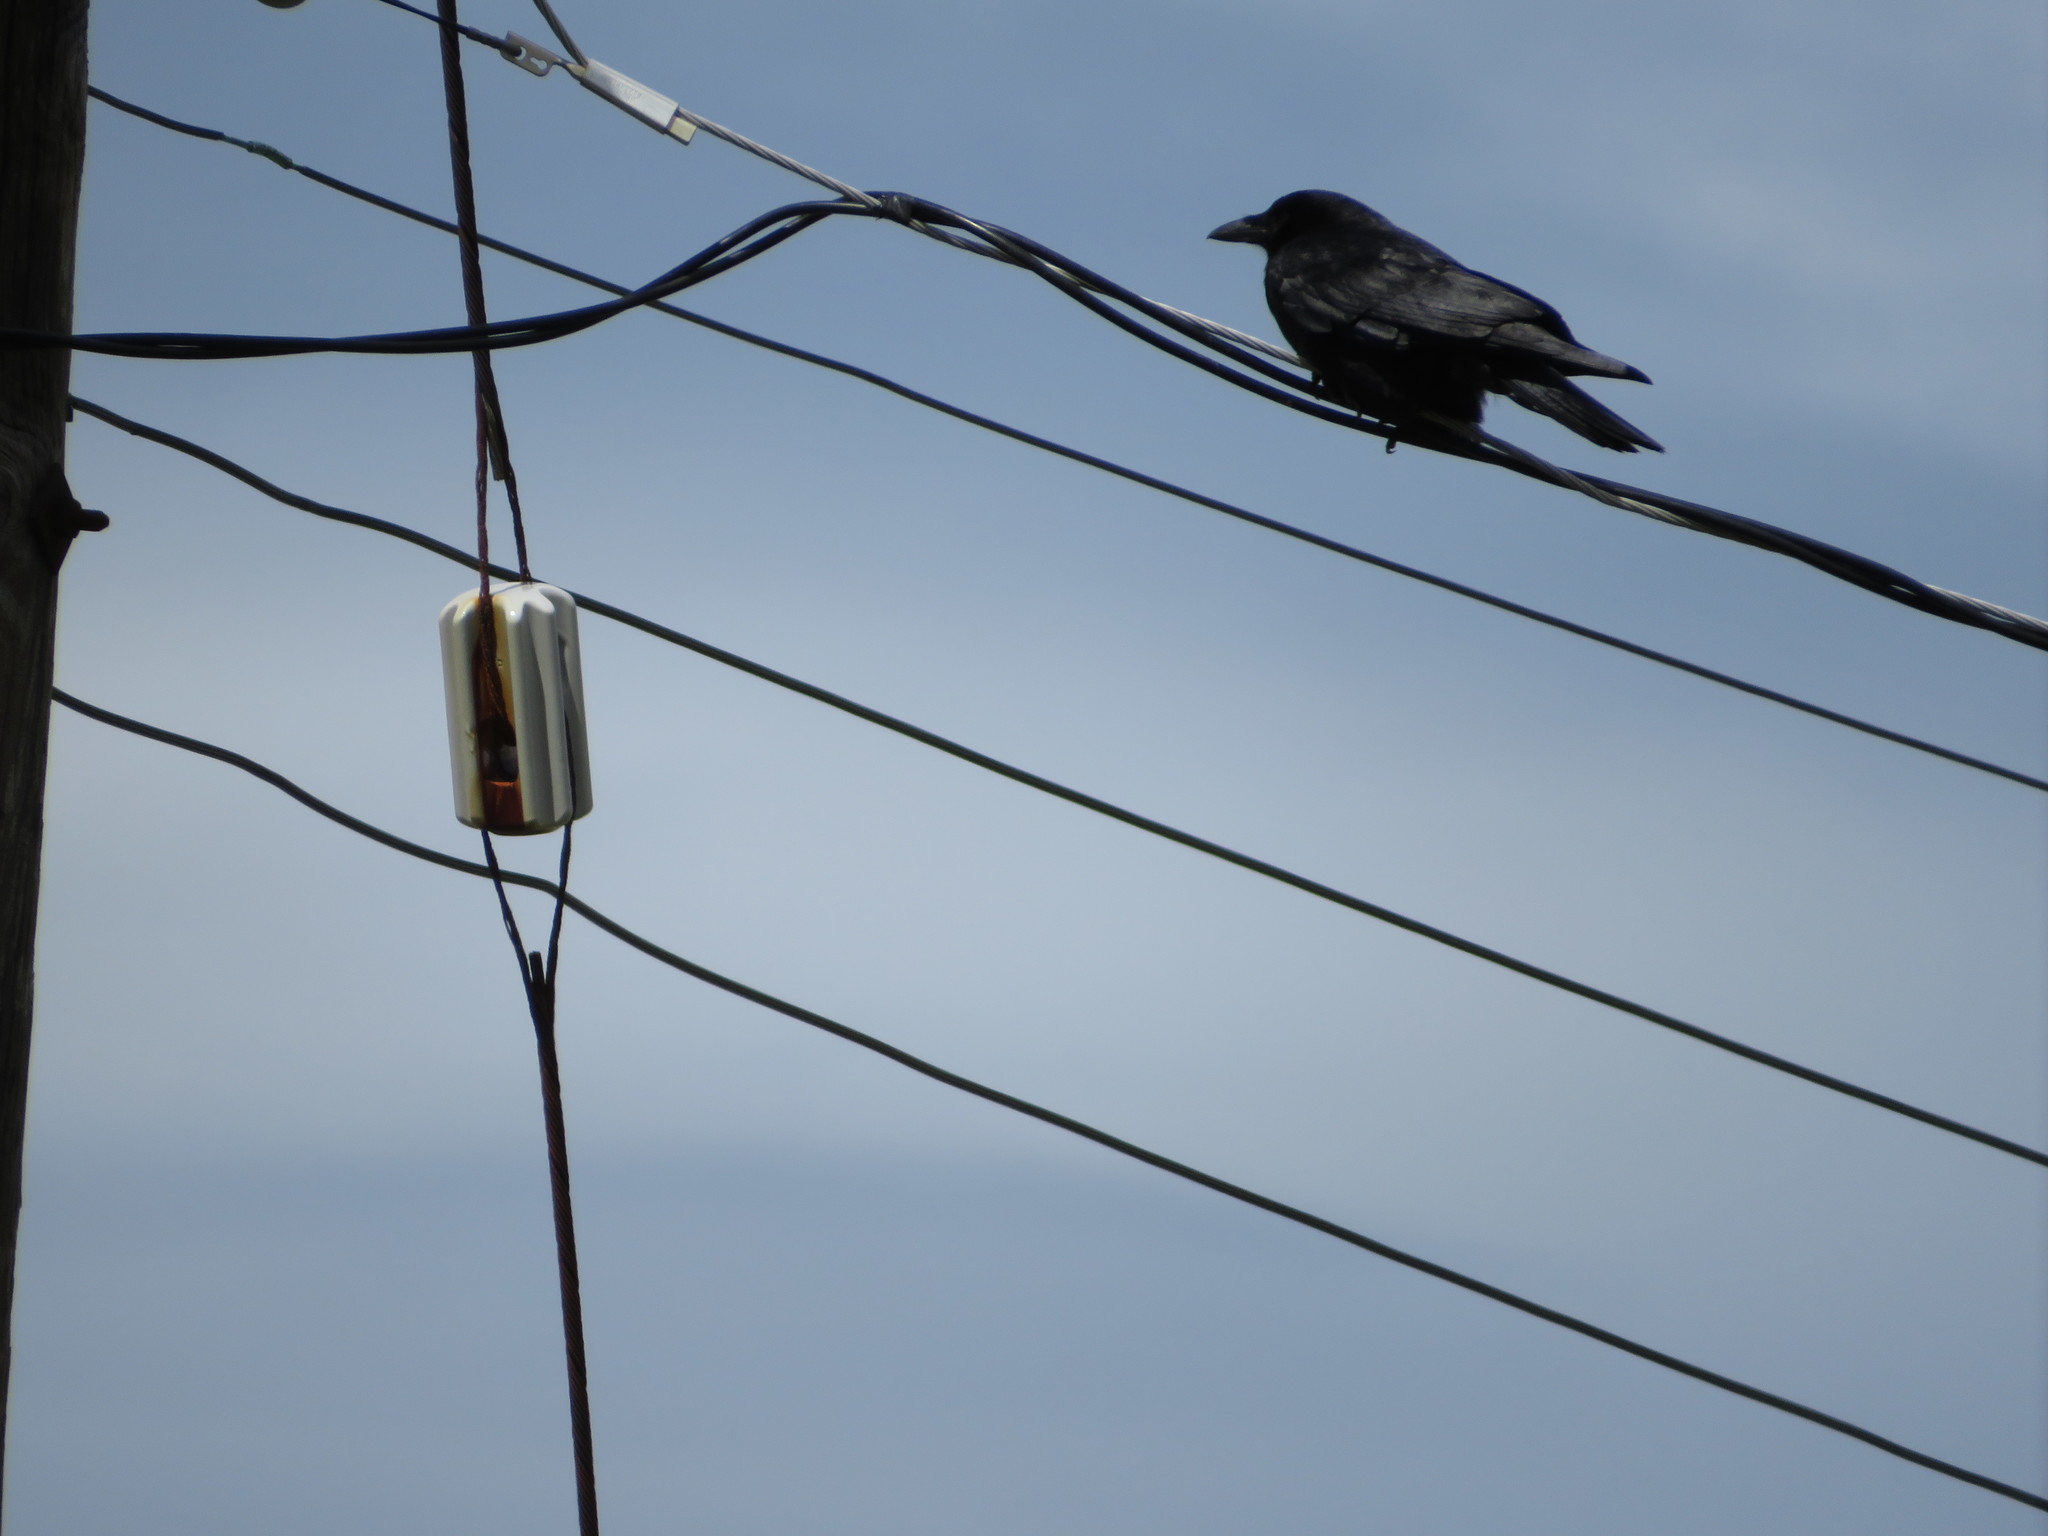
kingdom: Animalia
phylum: Chordata
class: Aves
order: Passeriformes
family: Corvidae
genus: Corvus
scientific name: Corvus brachyrhynchos
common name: American crow
